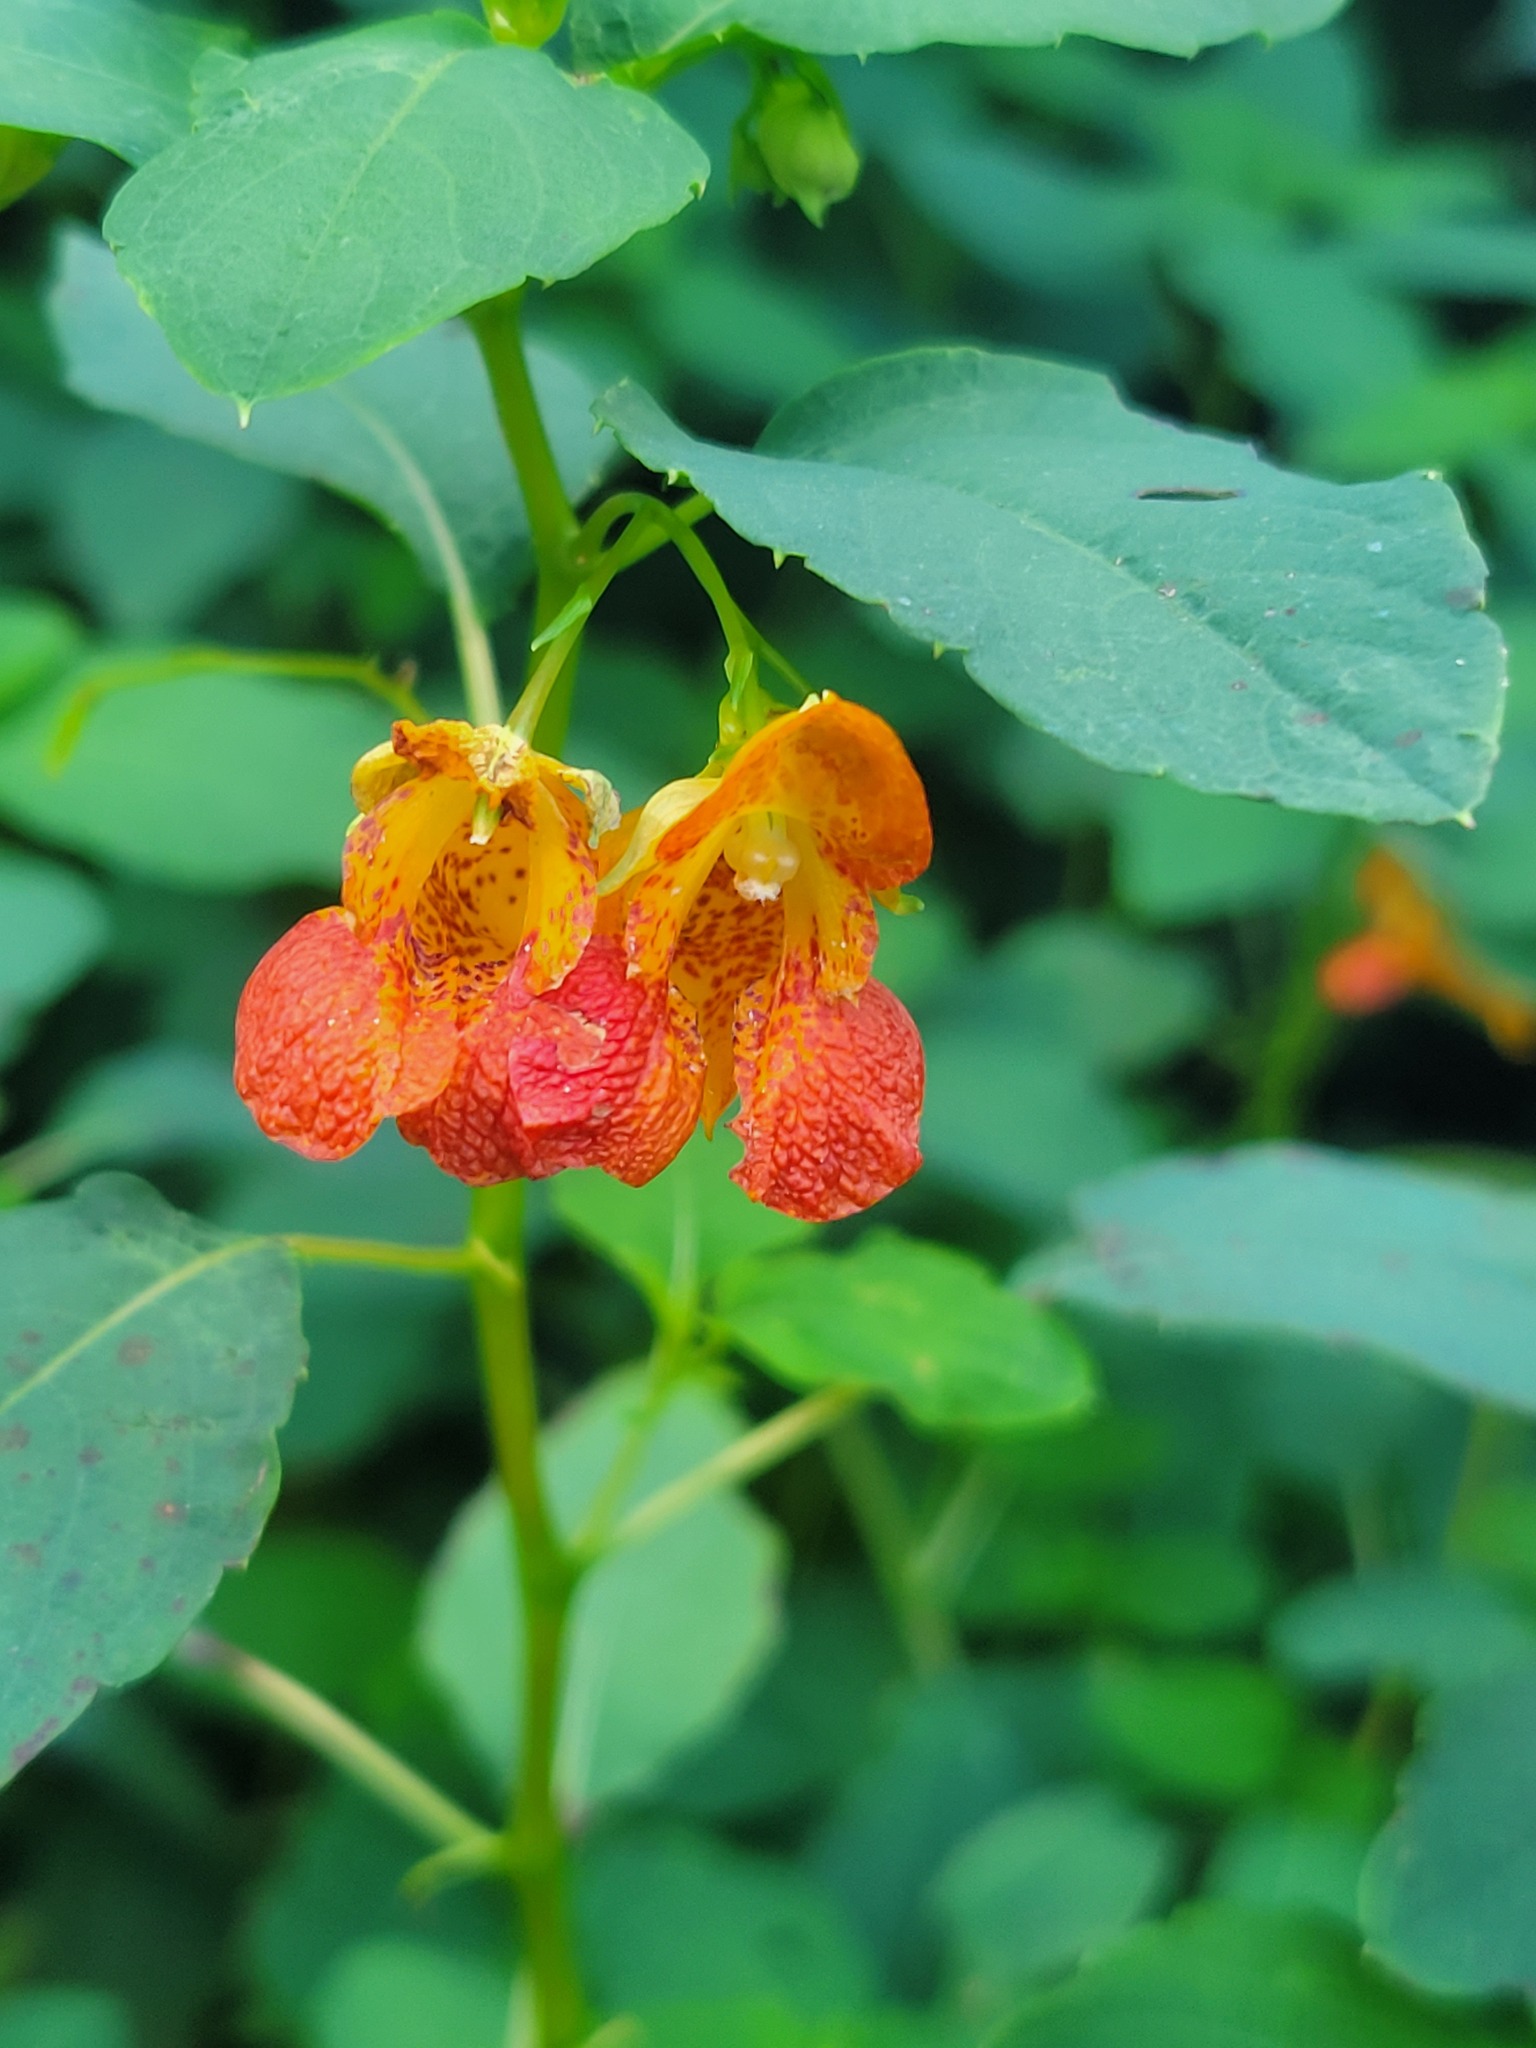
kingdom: Plantae
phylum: Tracheophyta
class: Magnoliopsida
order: Ericales
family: Balsaminaceae
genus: Impatiens
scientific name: Impatiens capensis
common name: Orange balsam
